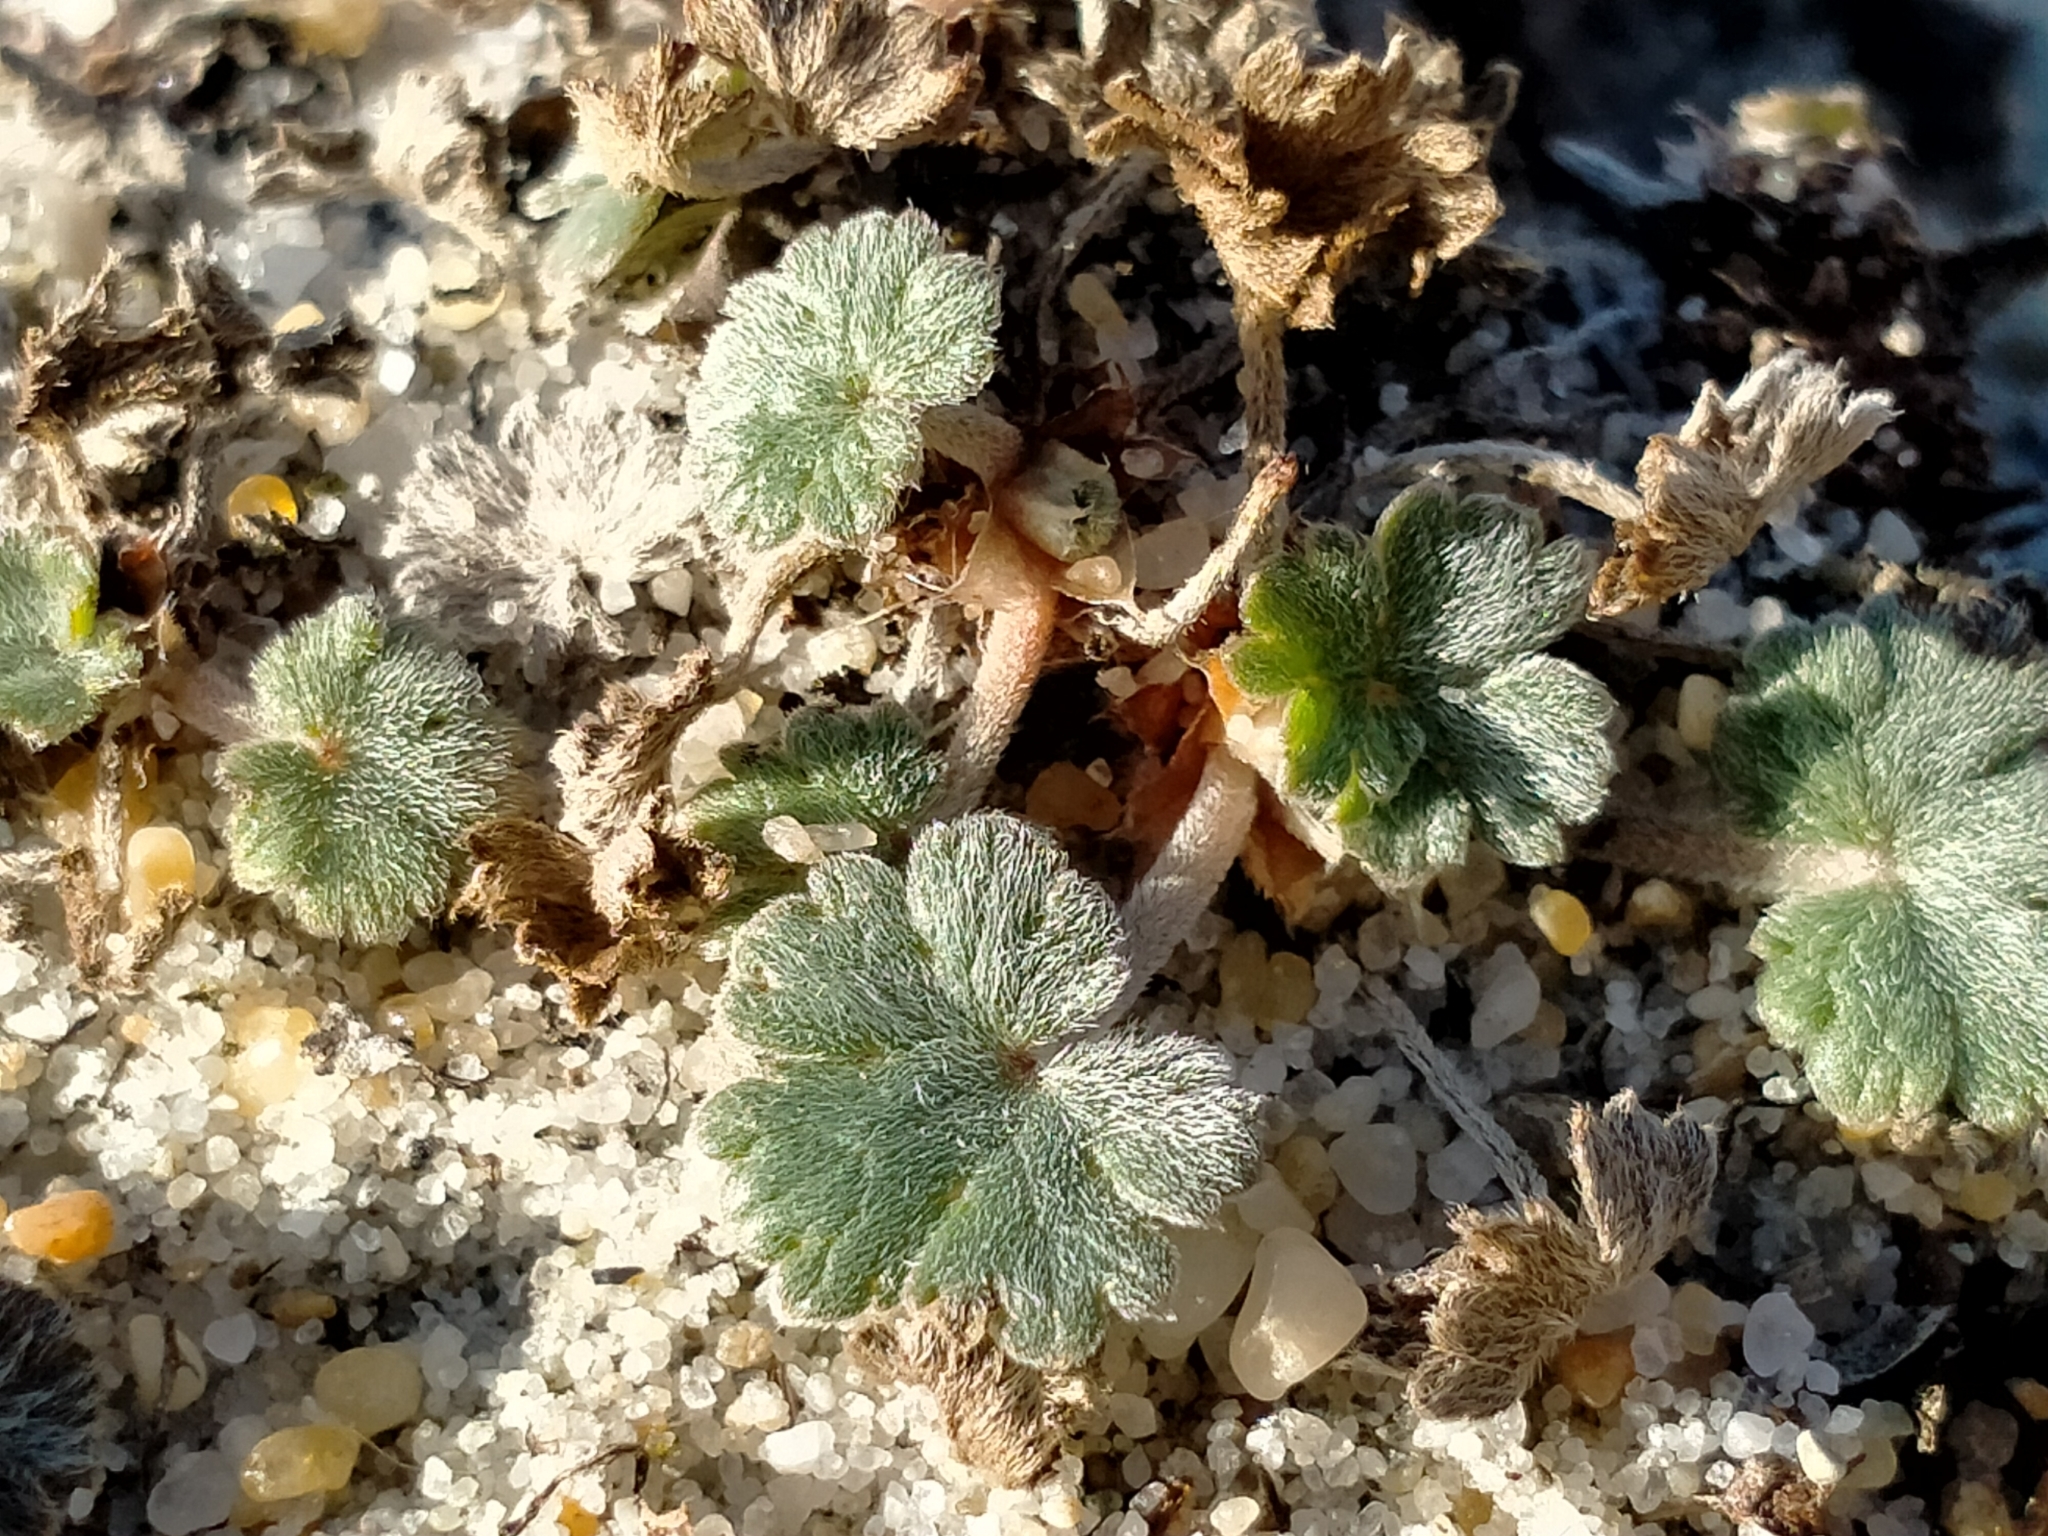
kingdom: Plantae
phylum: Tracheophyta
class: Magnoliopsida
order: Geraniales
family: Geraniaceae
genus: Geranium
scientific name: Geranium brevicaule
